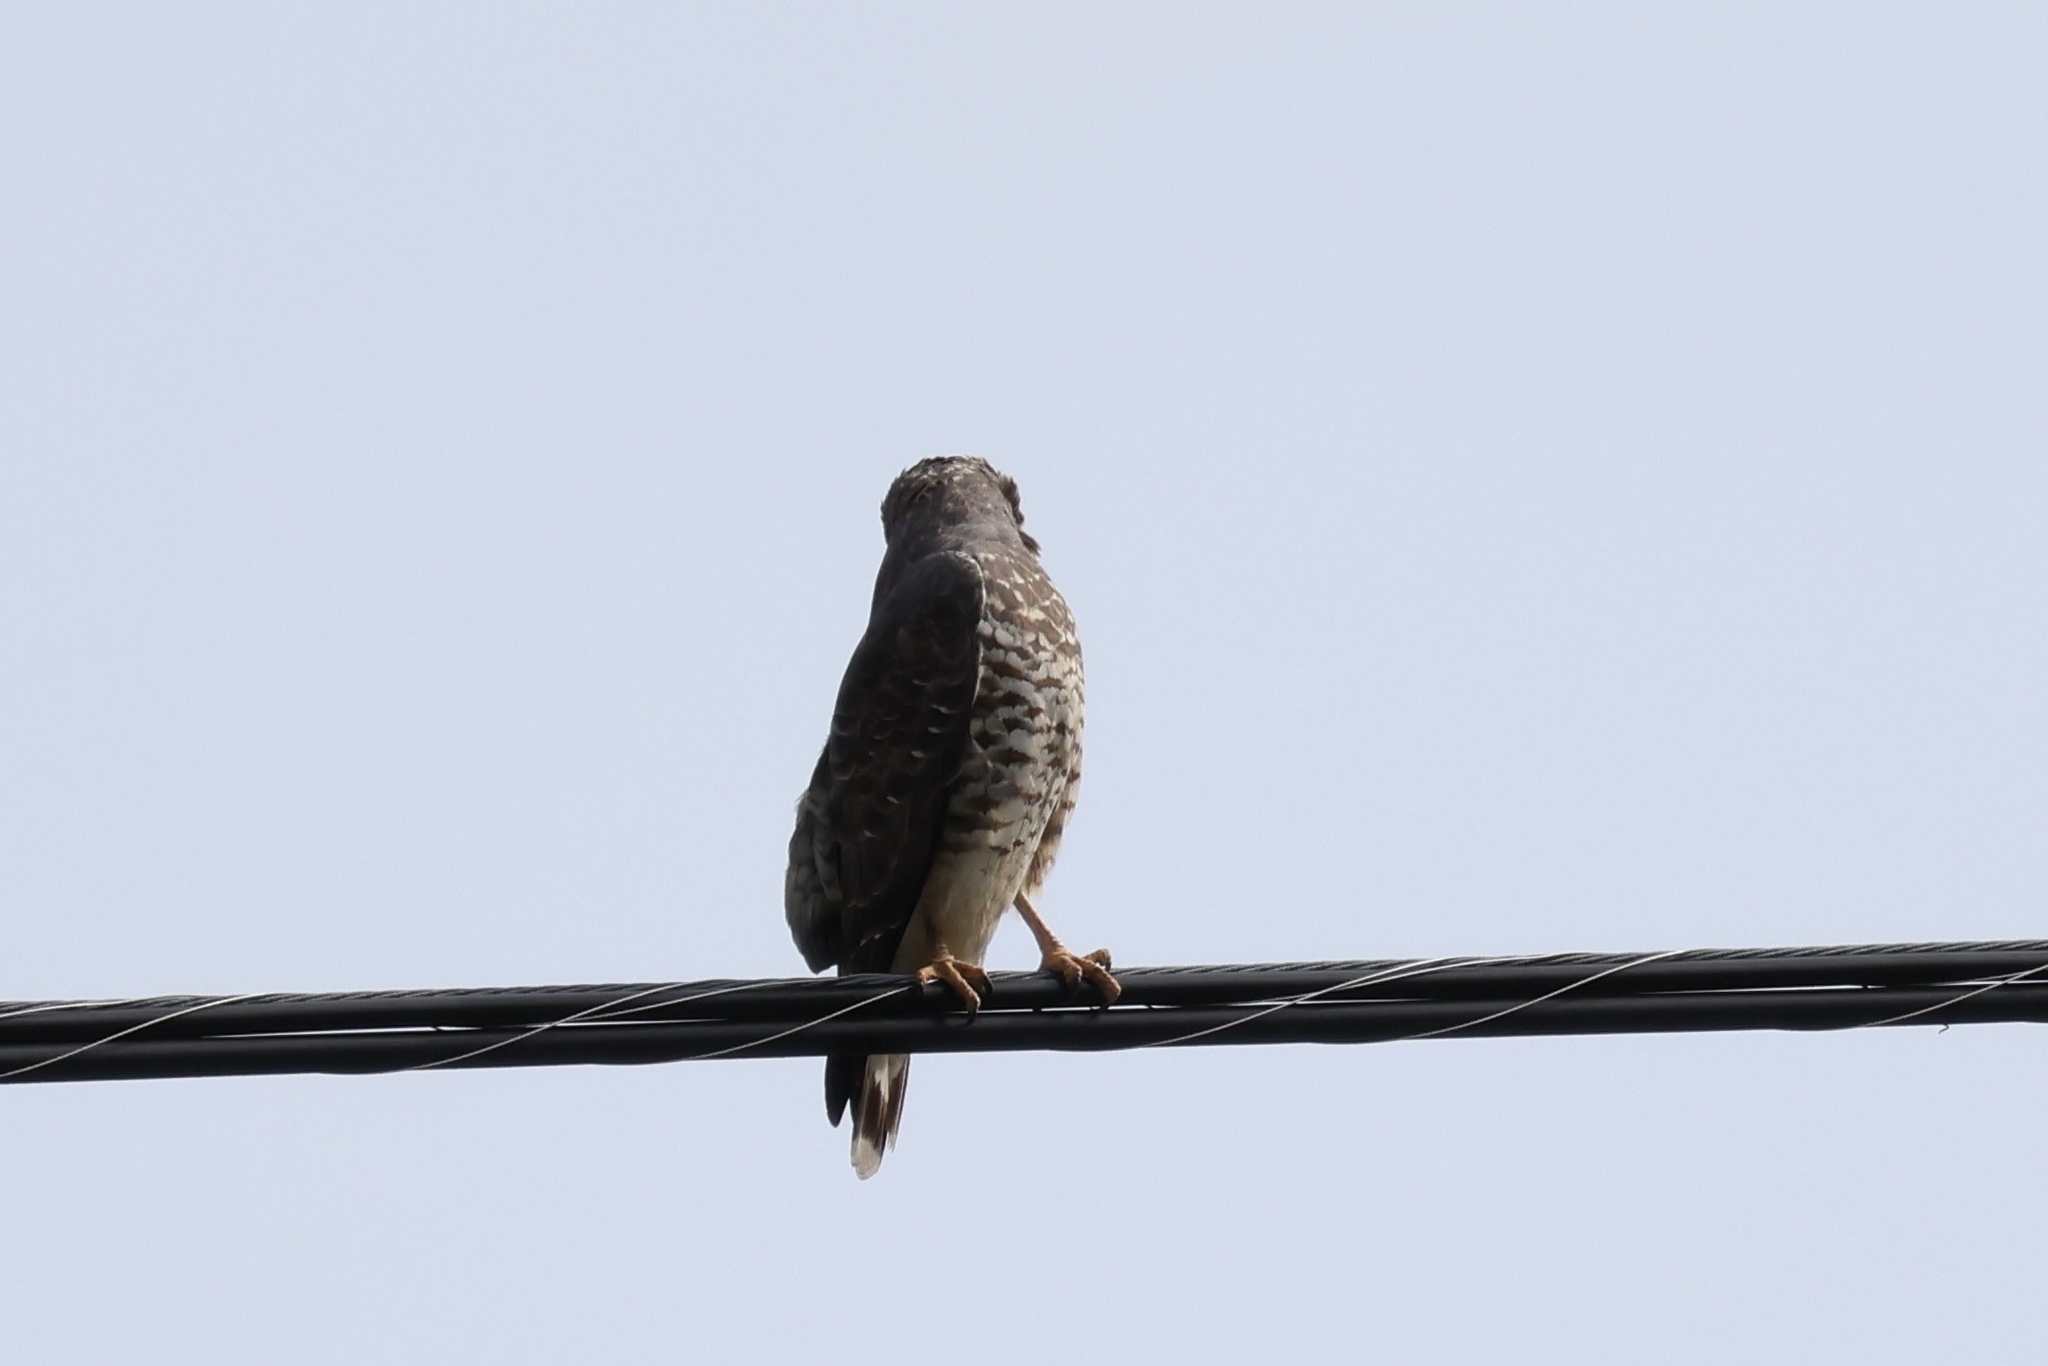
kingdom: Animalia
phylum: Chordata
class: Aves
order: Accipitriformes
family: Accipitridae
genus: Buteo
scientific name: Buteo platypterus
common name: Broad-winged hawk
